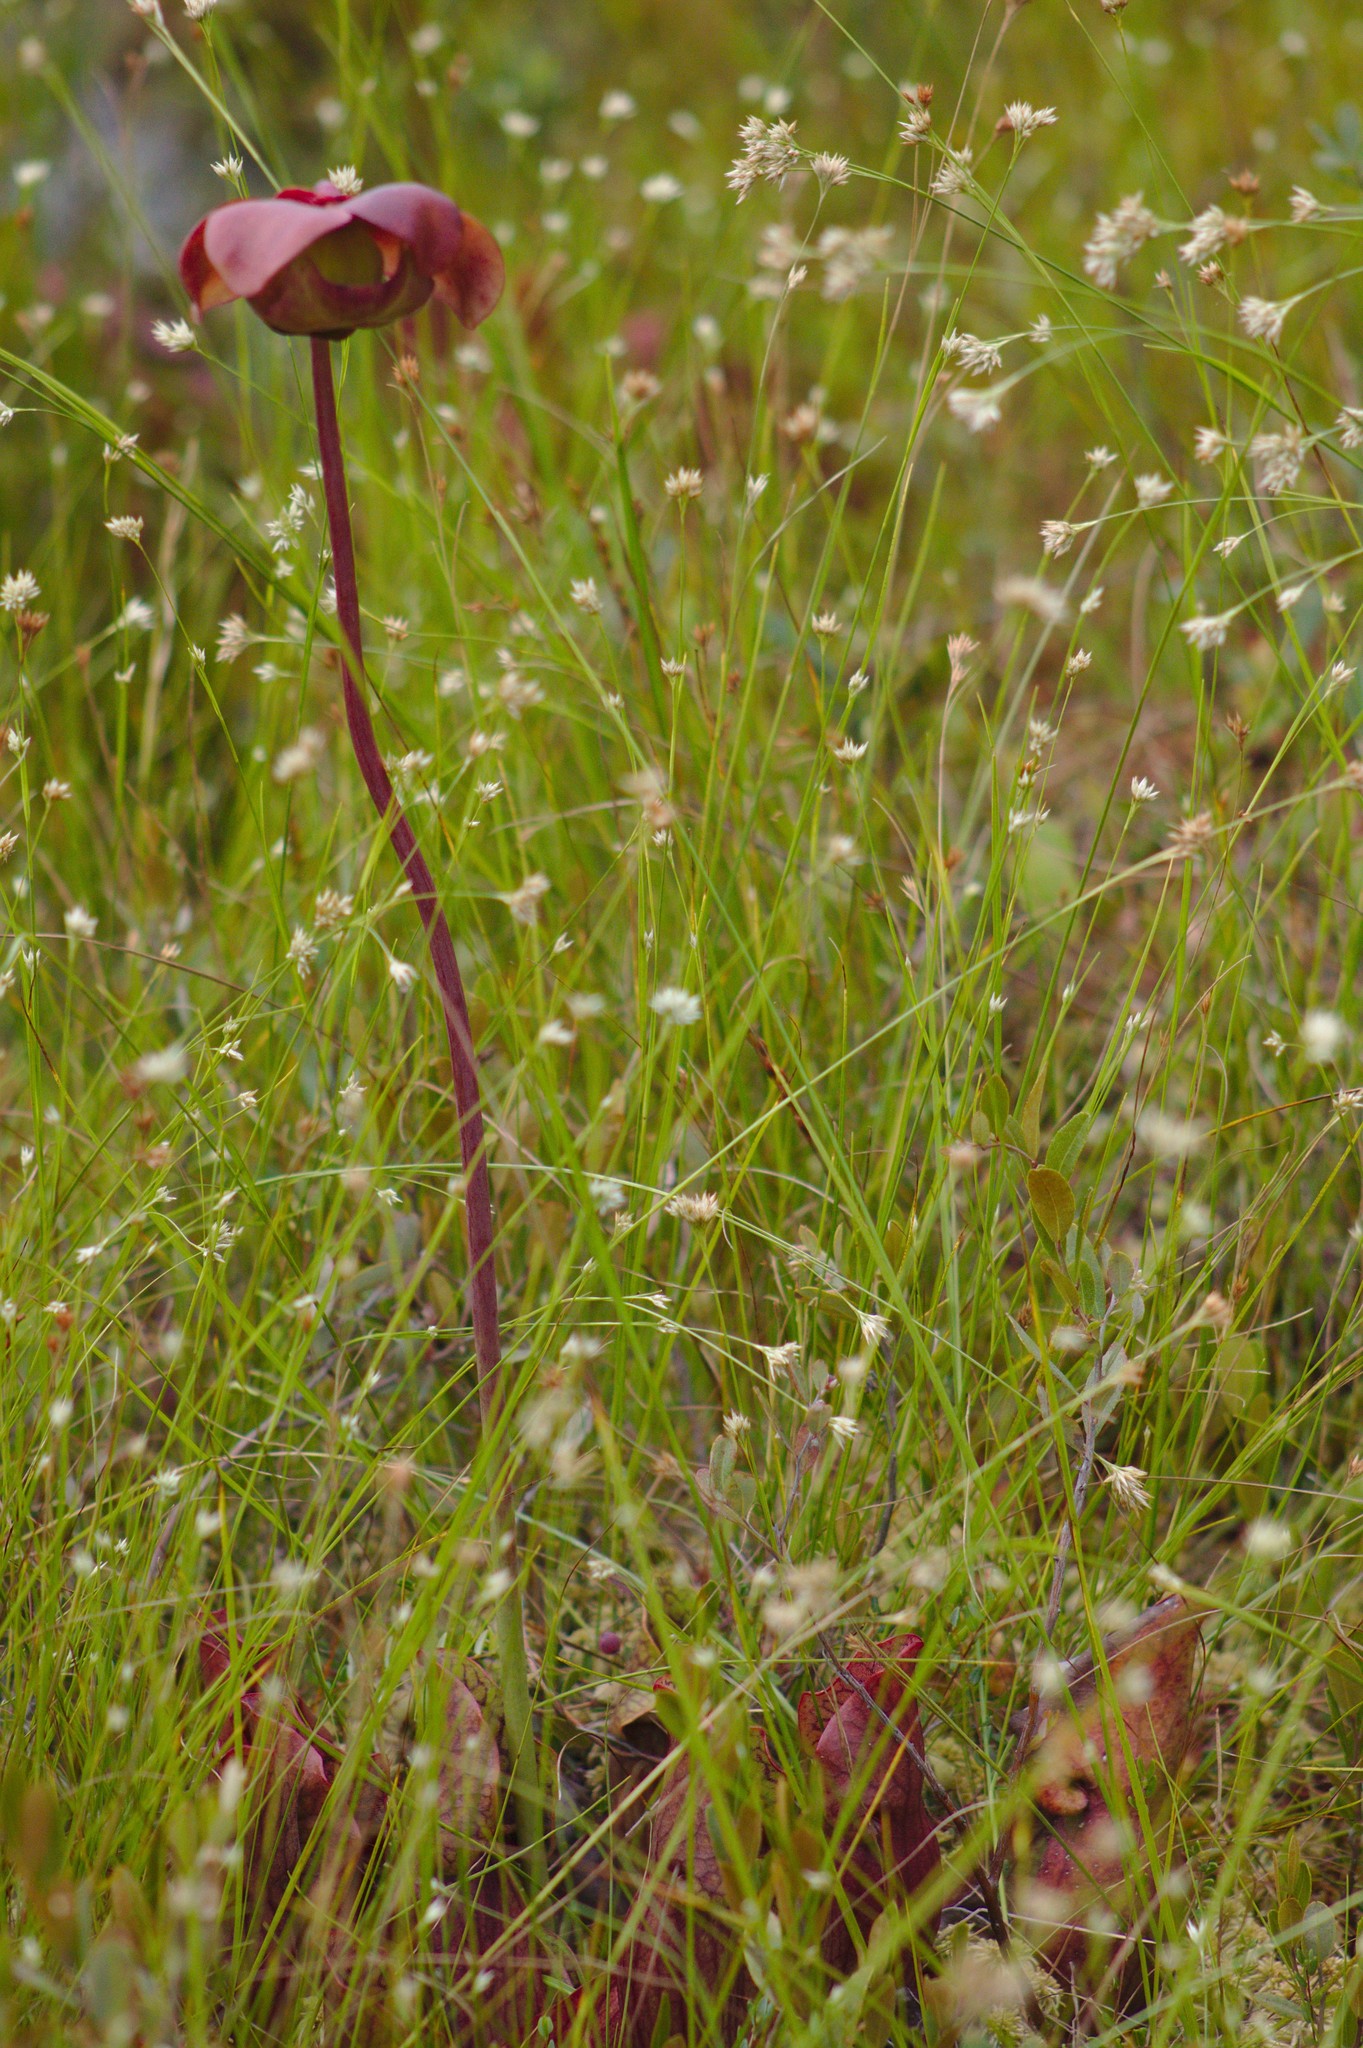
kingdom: Plantae
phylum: Tracheophyta
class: Liliopsida
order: Poales
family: Cyperaceae
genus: Rhynchospora
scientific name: Rhynchospora alba
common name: White beak-sedge
